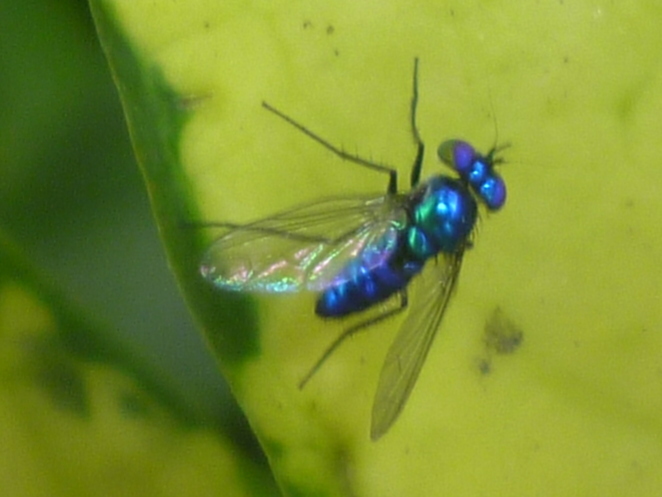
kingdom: Animalia
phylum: Arthropoda
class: Insecta
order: Diptera
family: Dolichopodidae
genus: Condylostylus
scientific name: Condylostylus mundus
